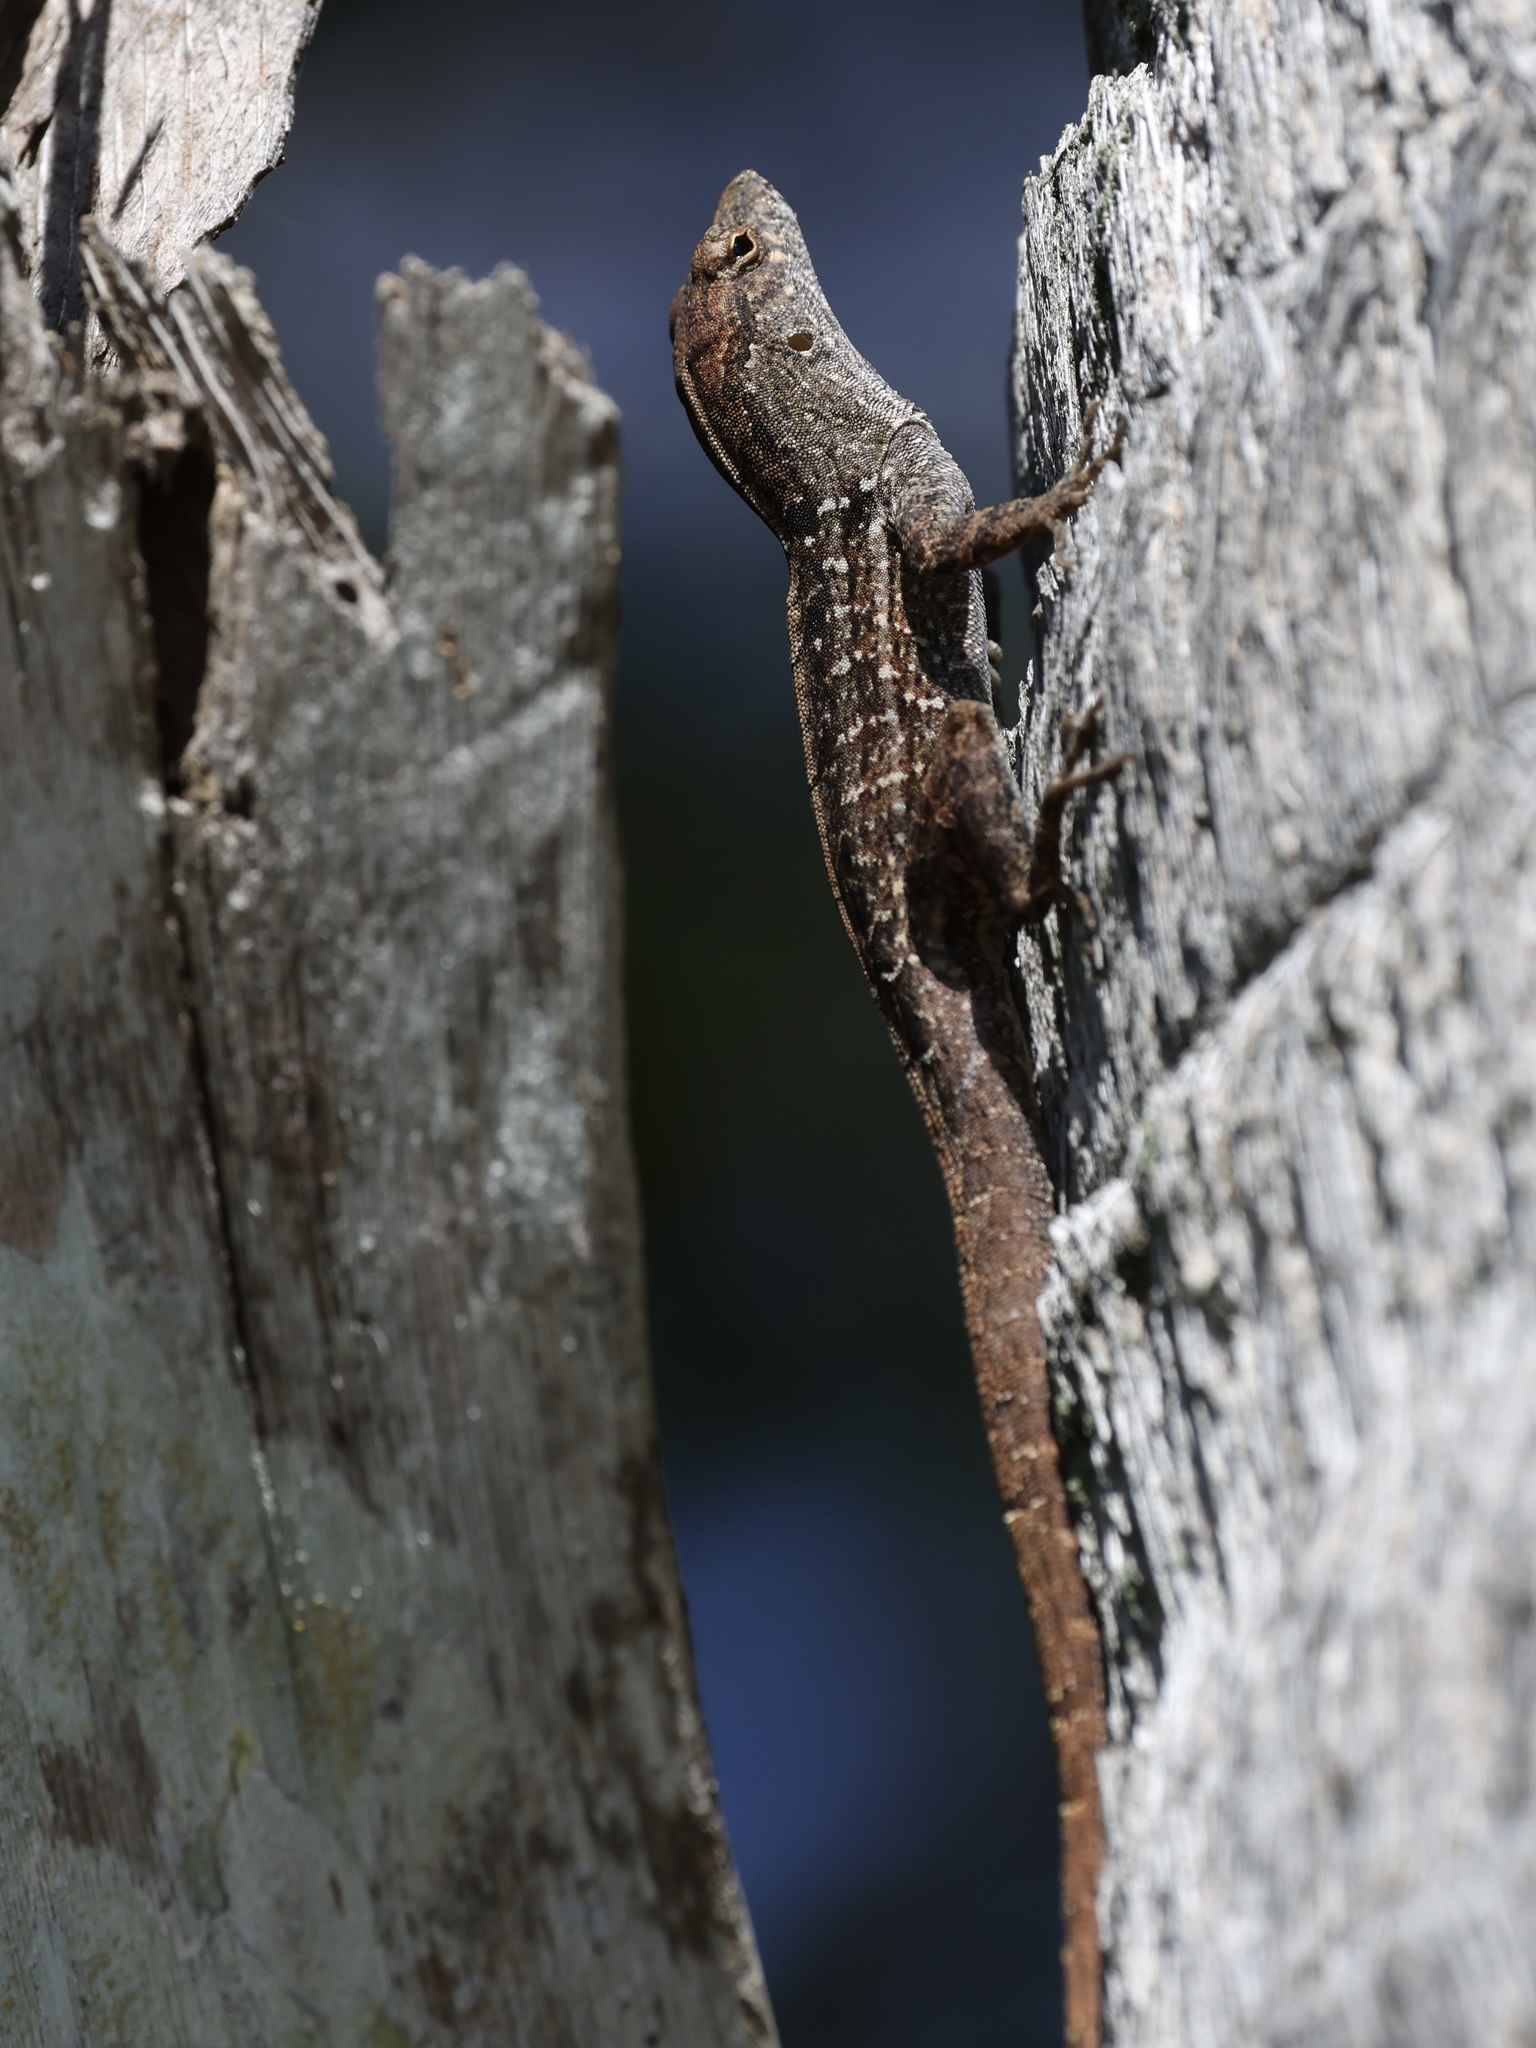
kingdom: Animalia
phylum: Chordata
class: Squamata
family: Dactyloidae
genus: Anolis
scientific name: Anolis sagrei
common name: Brown anole
